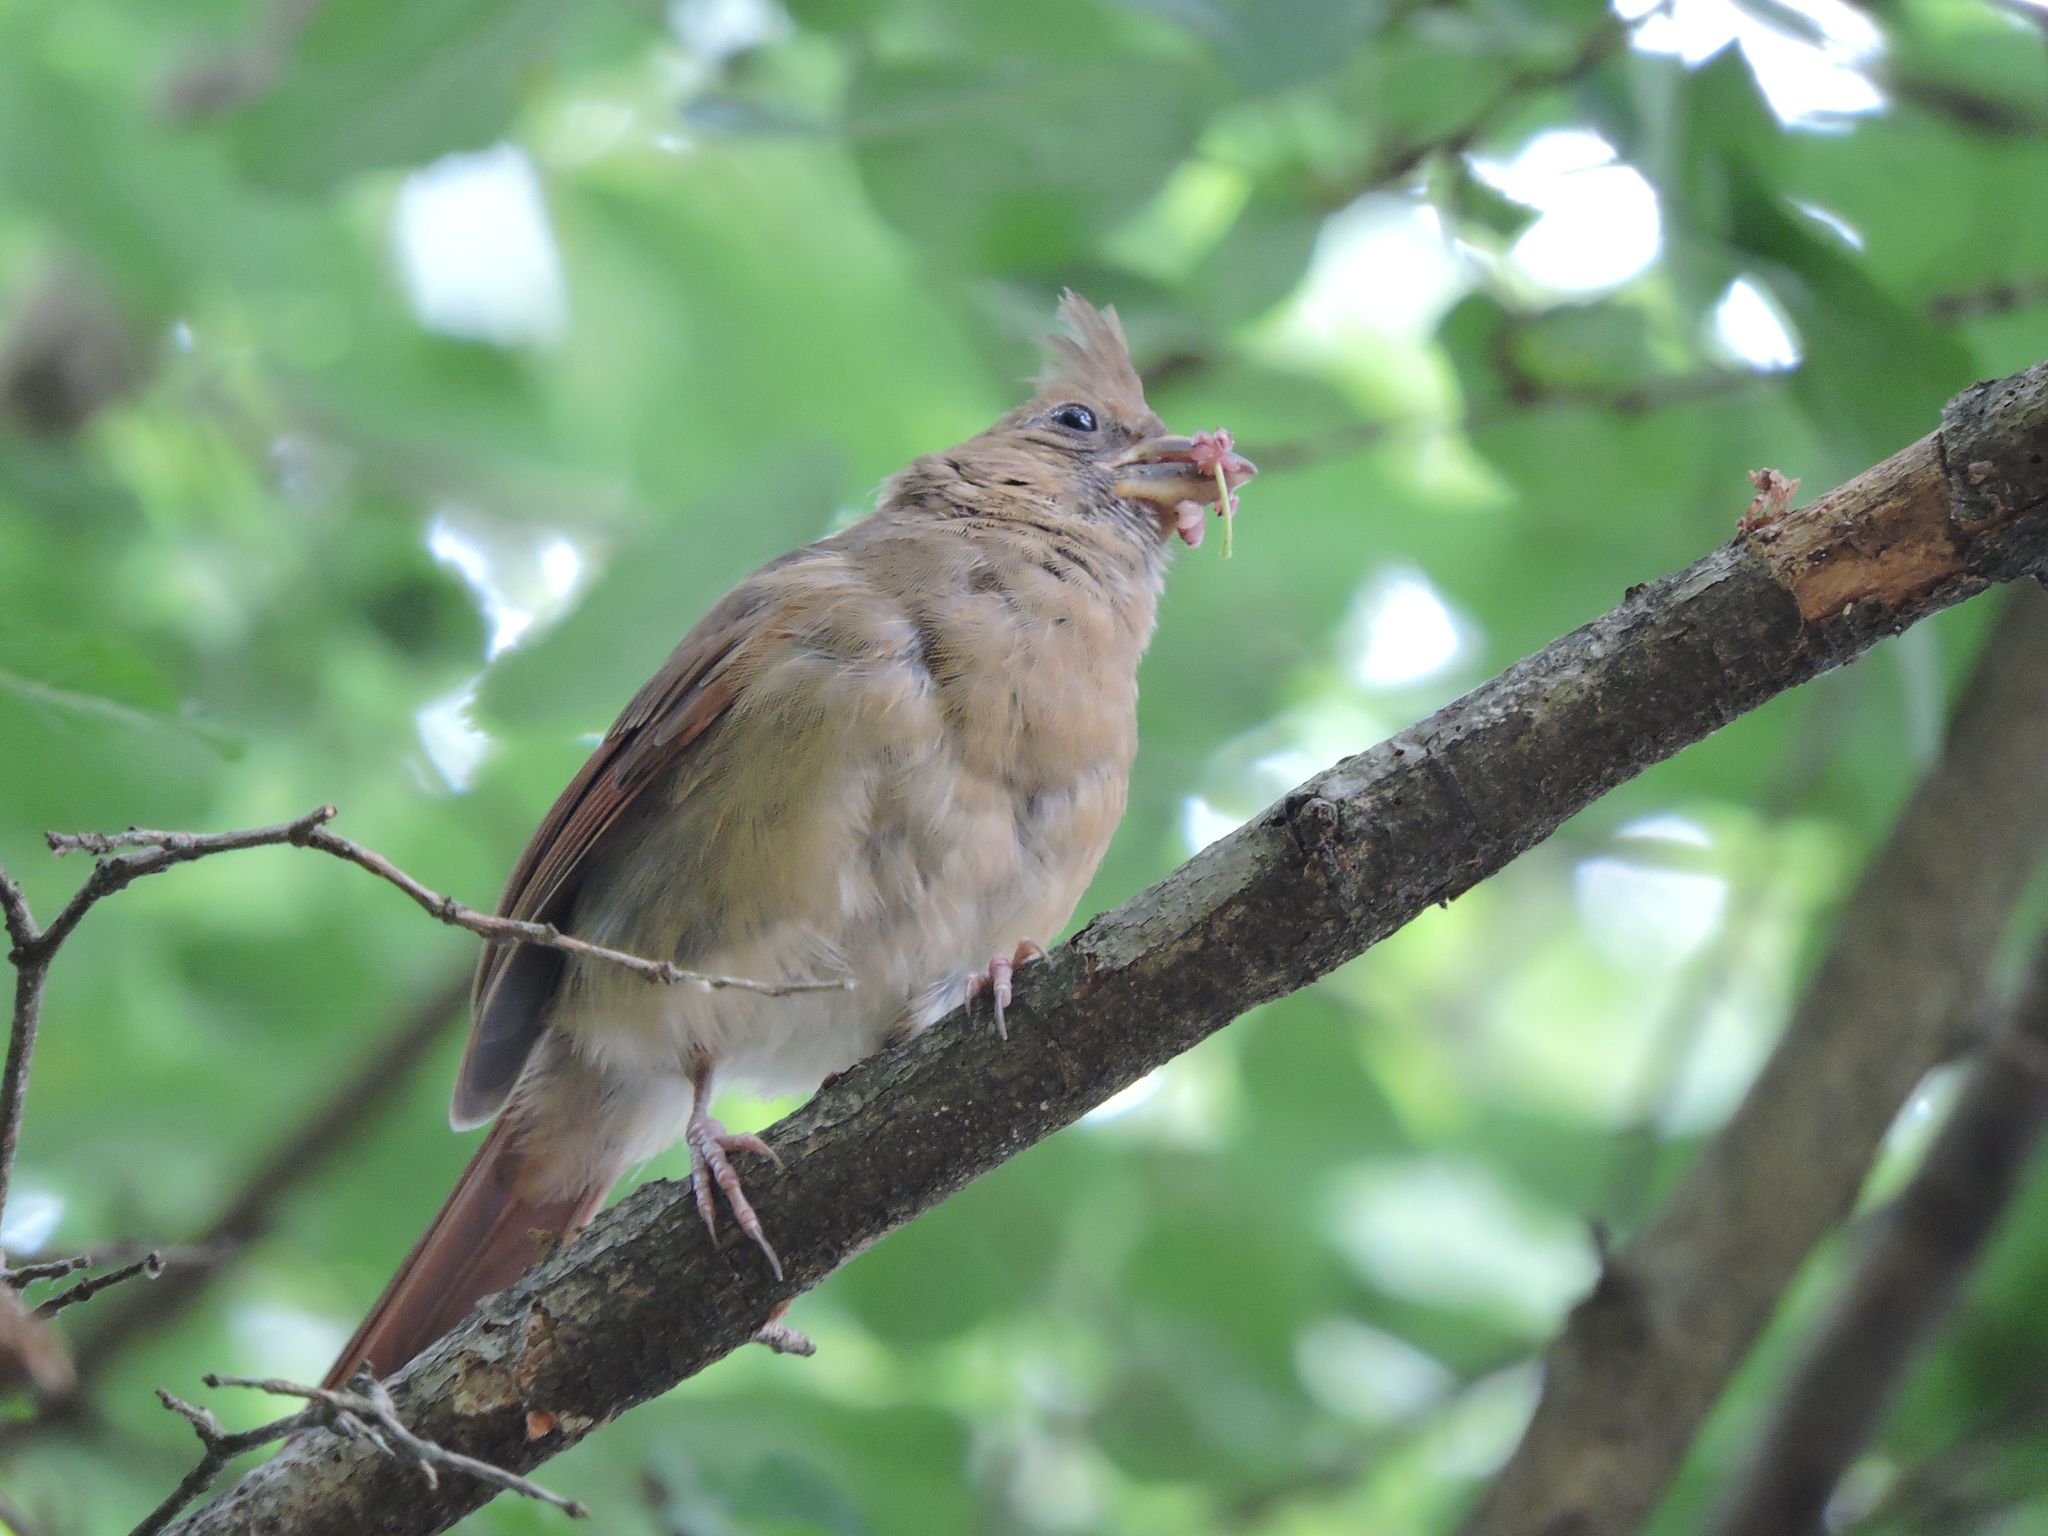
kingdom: Animalia
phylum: Chordata
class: Aves
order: Passeriformes
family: Cardinalidae
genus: Cardinalis
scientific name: Cardinalis cardinalis
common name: Northern cardinal
